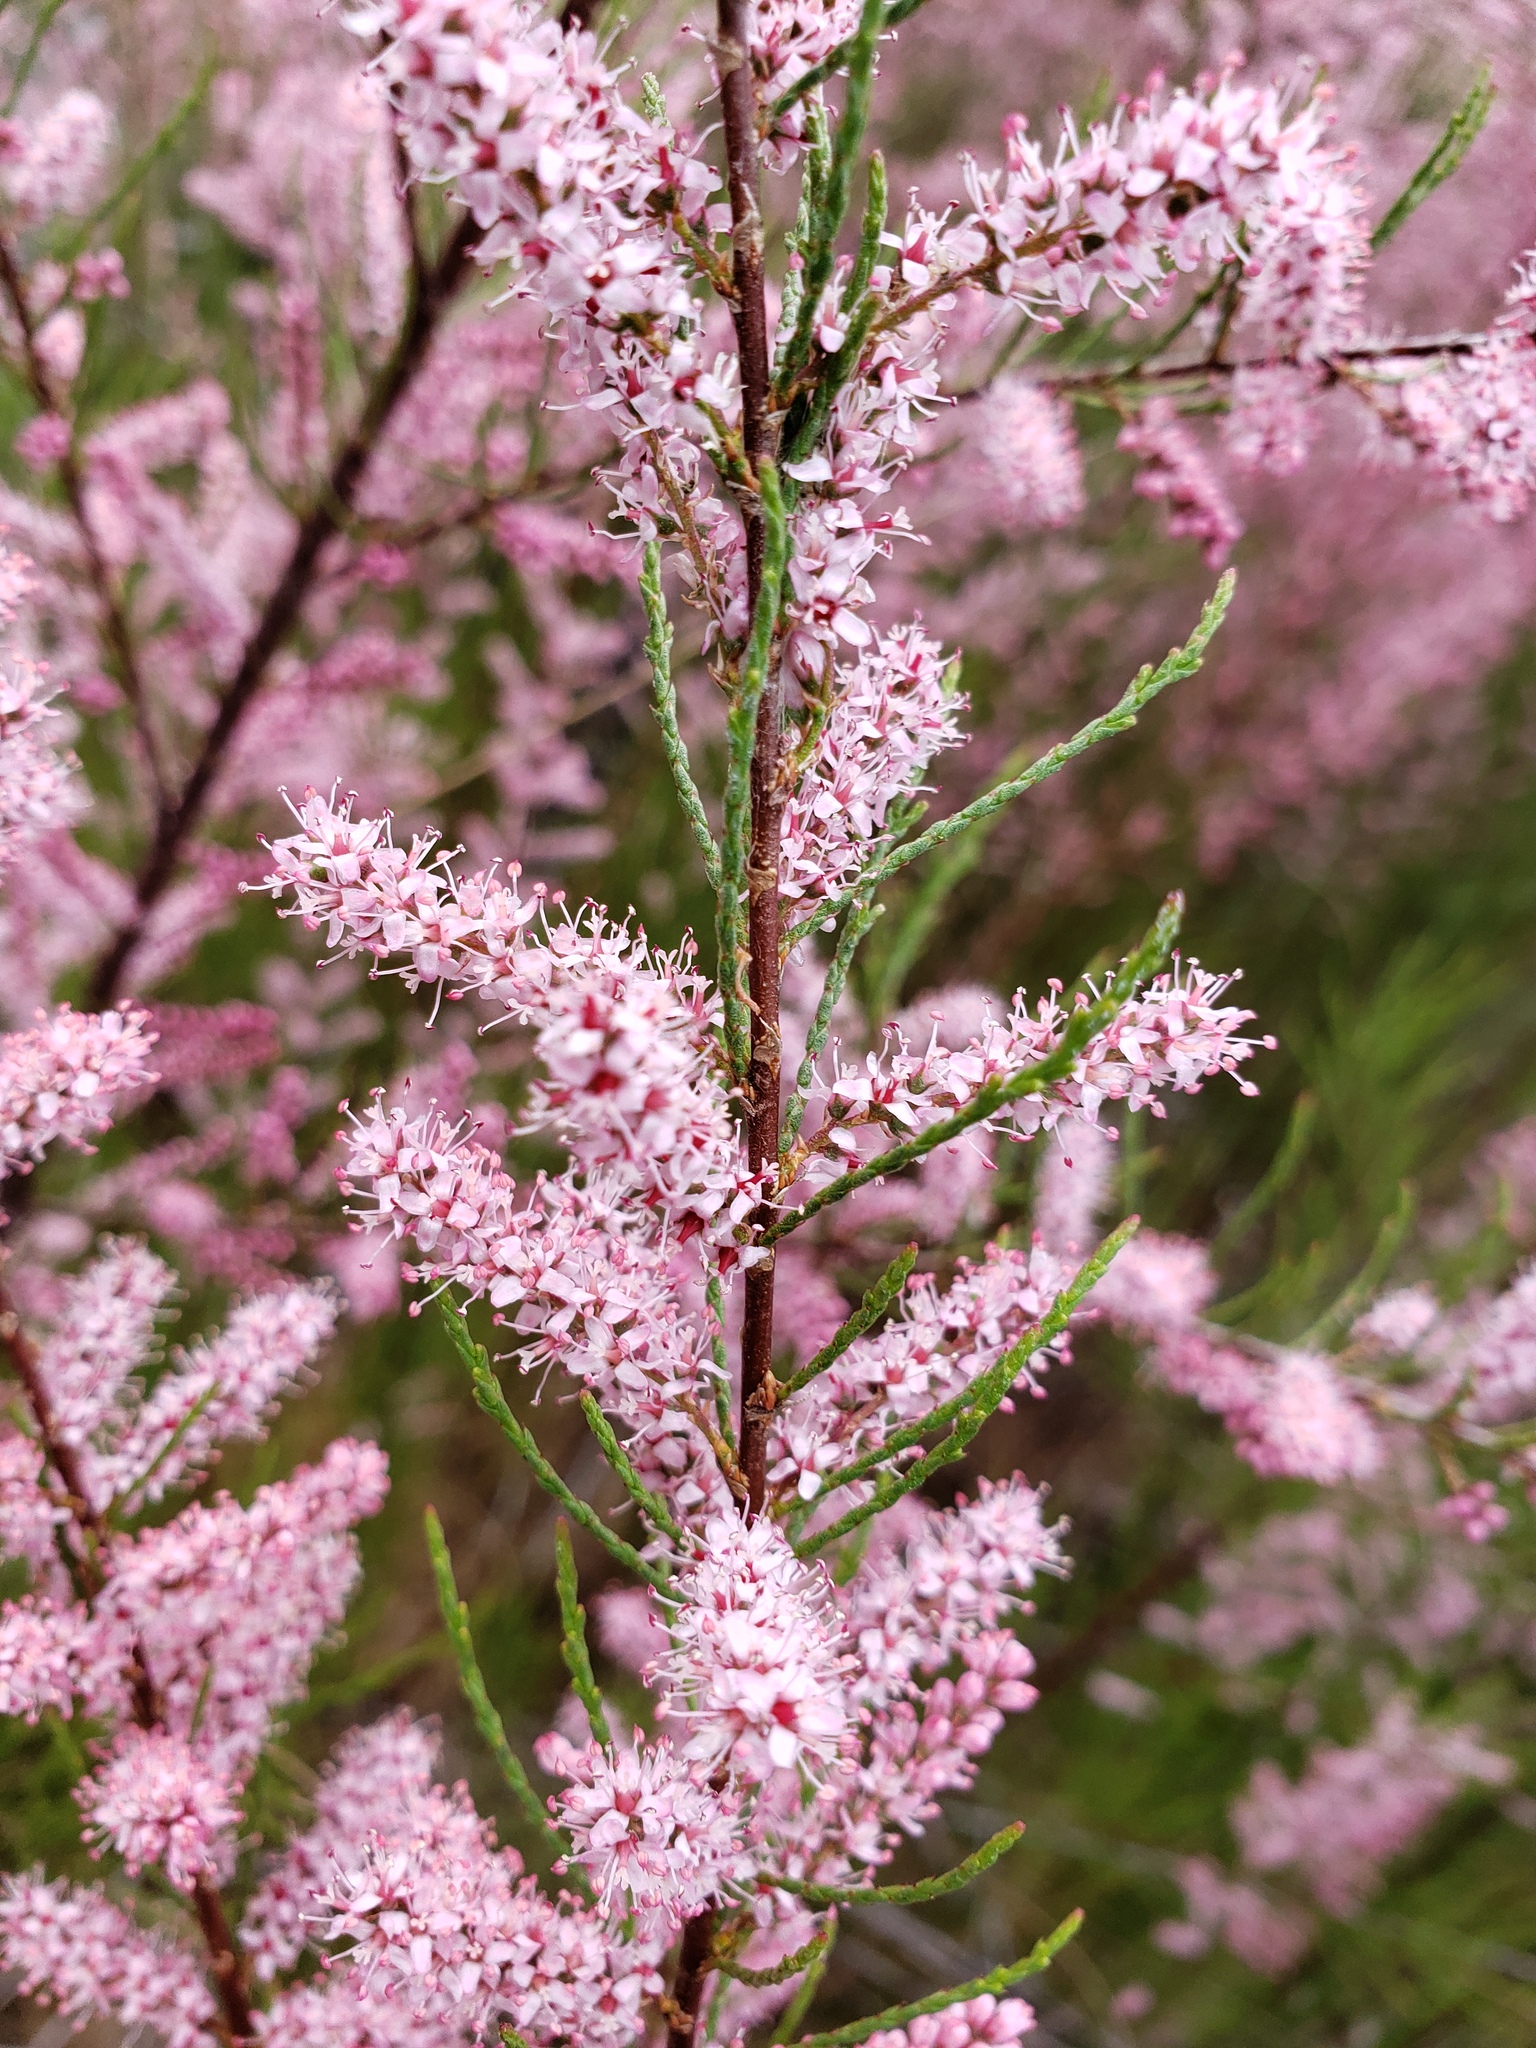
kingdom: Plantae
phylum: Tracheophyta
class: Magnoliopsida
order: Caryophyllales
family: Tamaricaceae
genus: Tamarix
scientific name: Tamarix ramosissima
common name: Pink tamarisk
